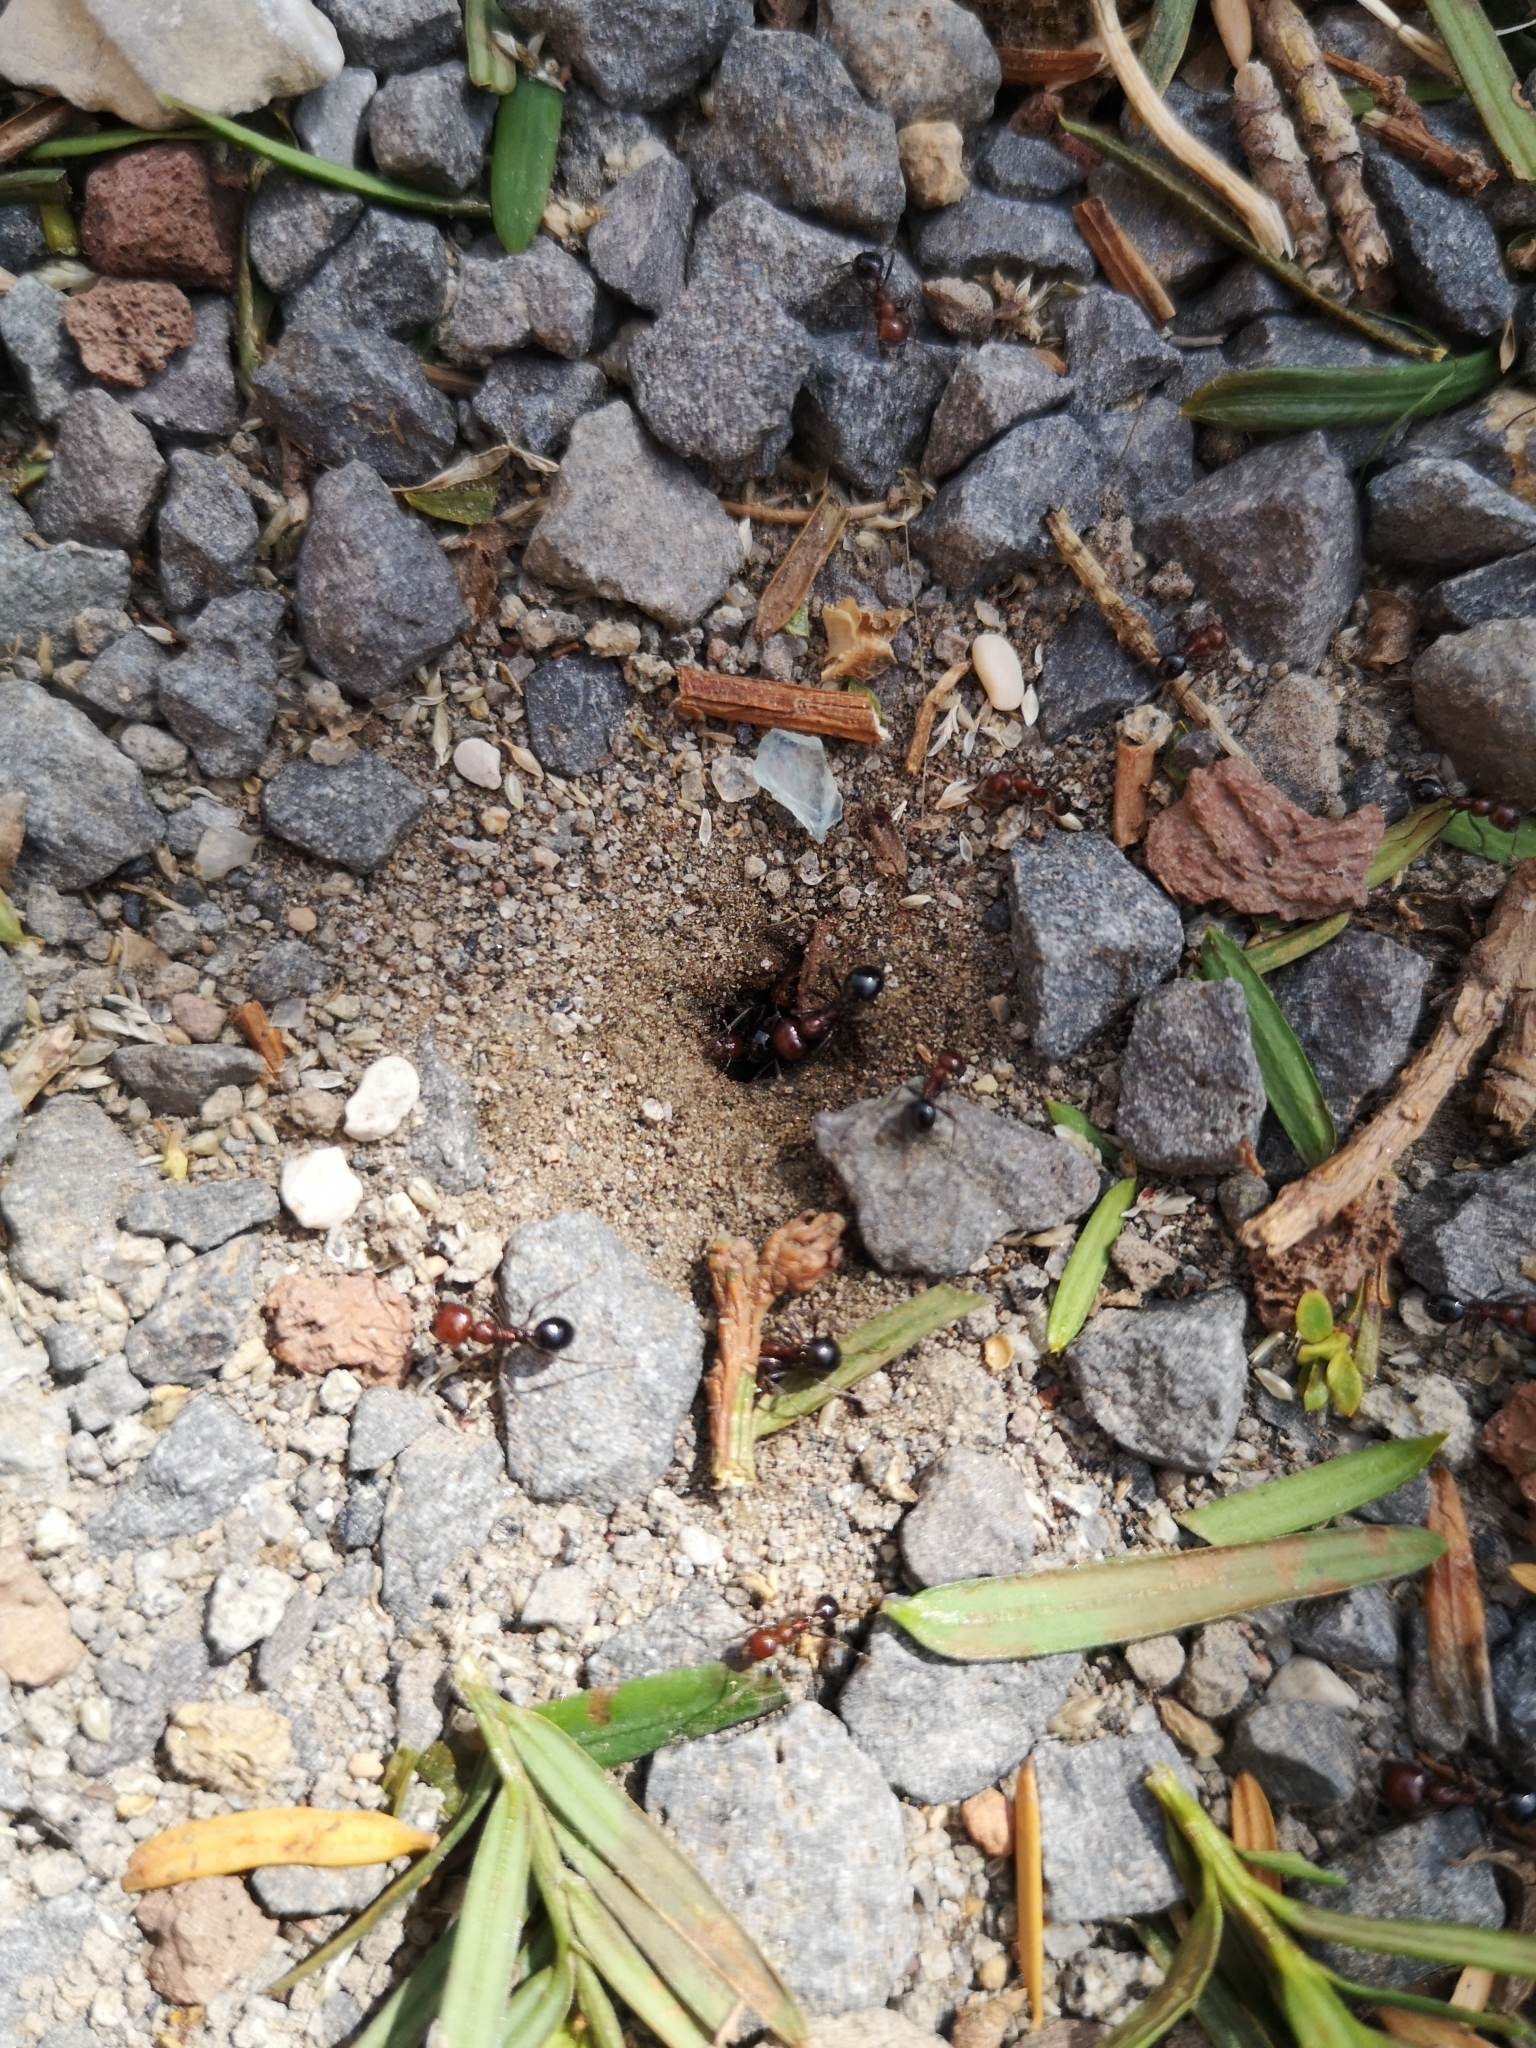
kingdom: Animalia
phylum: Arthropoda
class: Insecta
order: Hymenoptera
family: Formicidae
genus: Messor
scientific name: Messor minor
